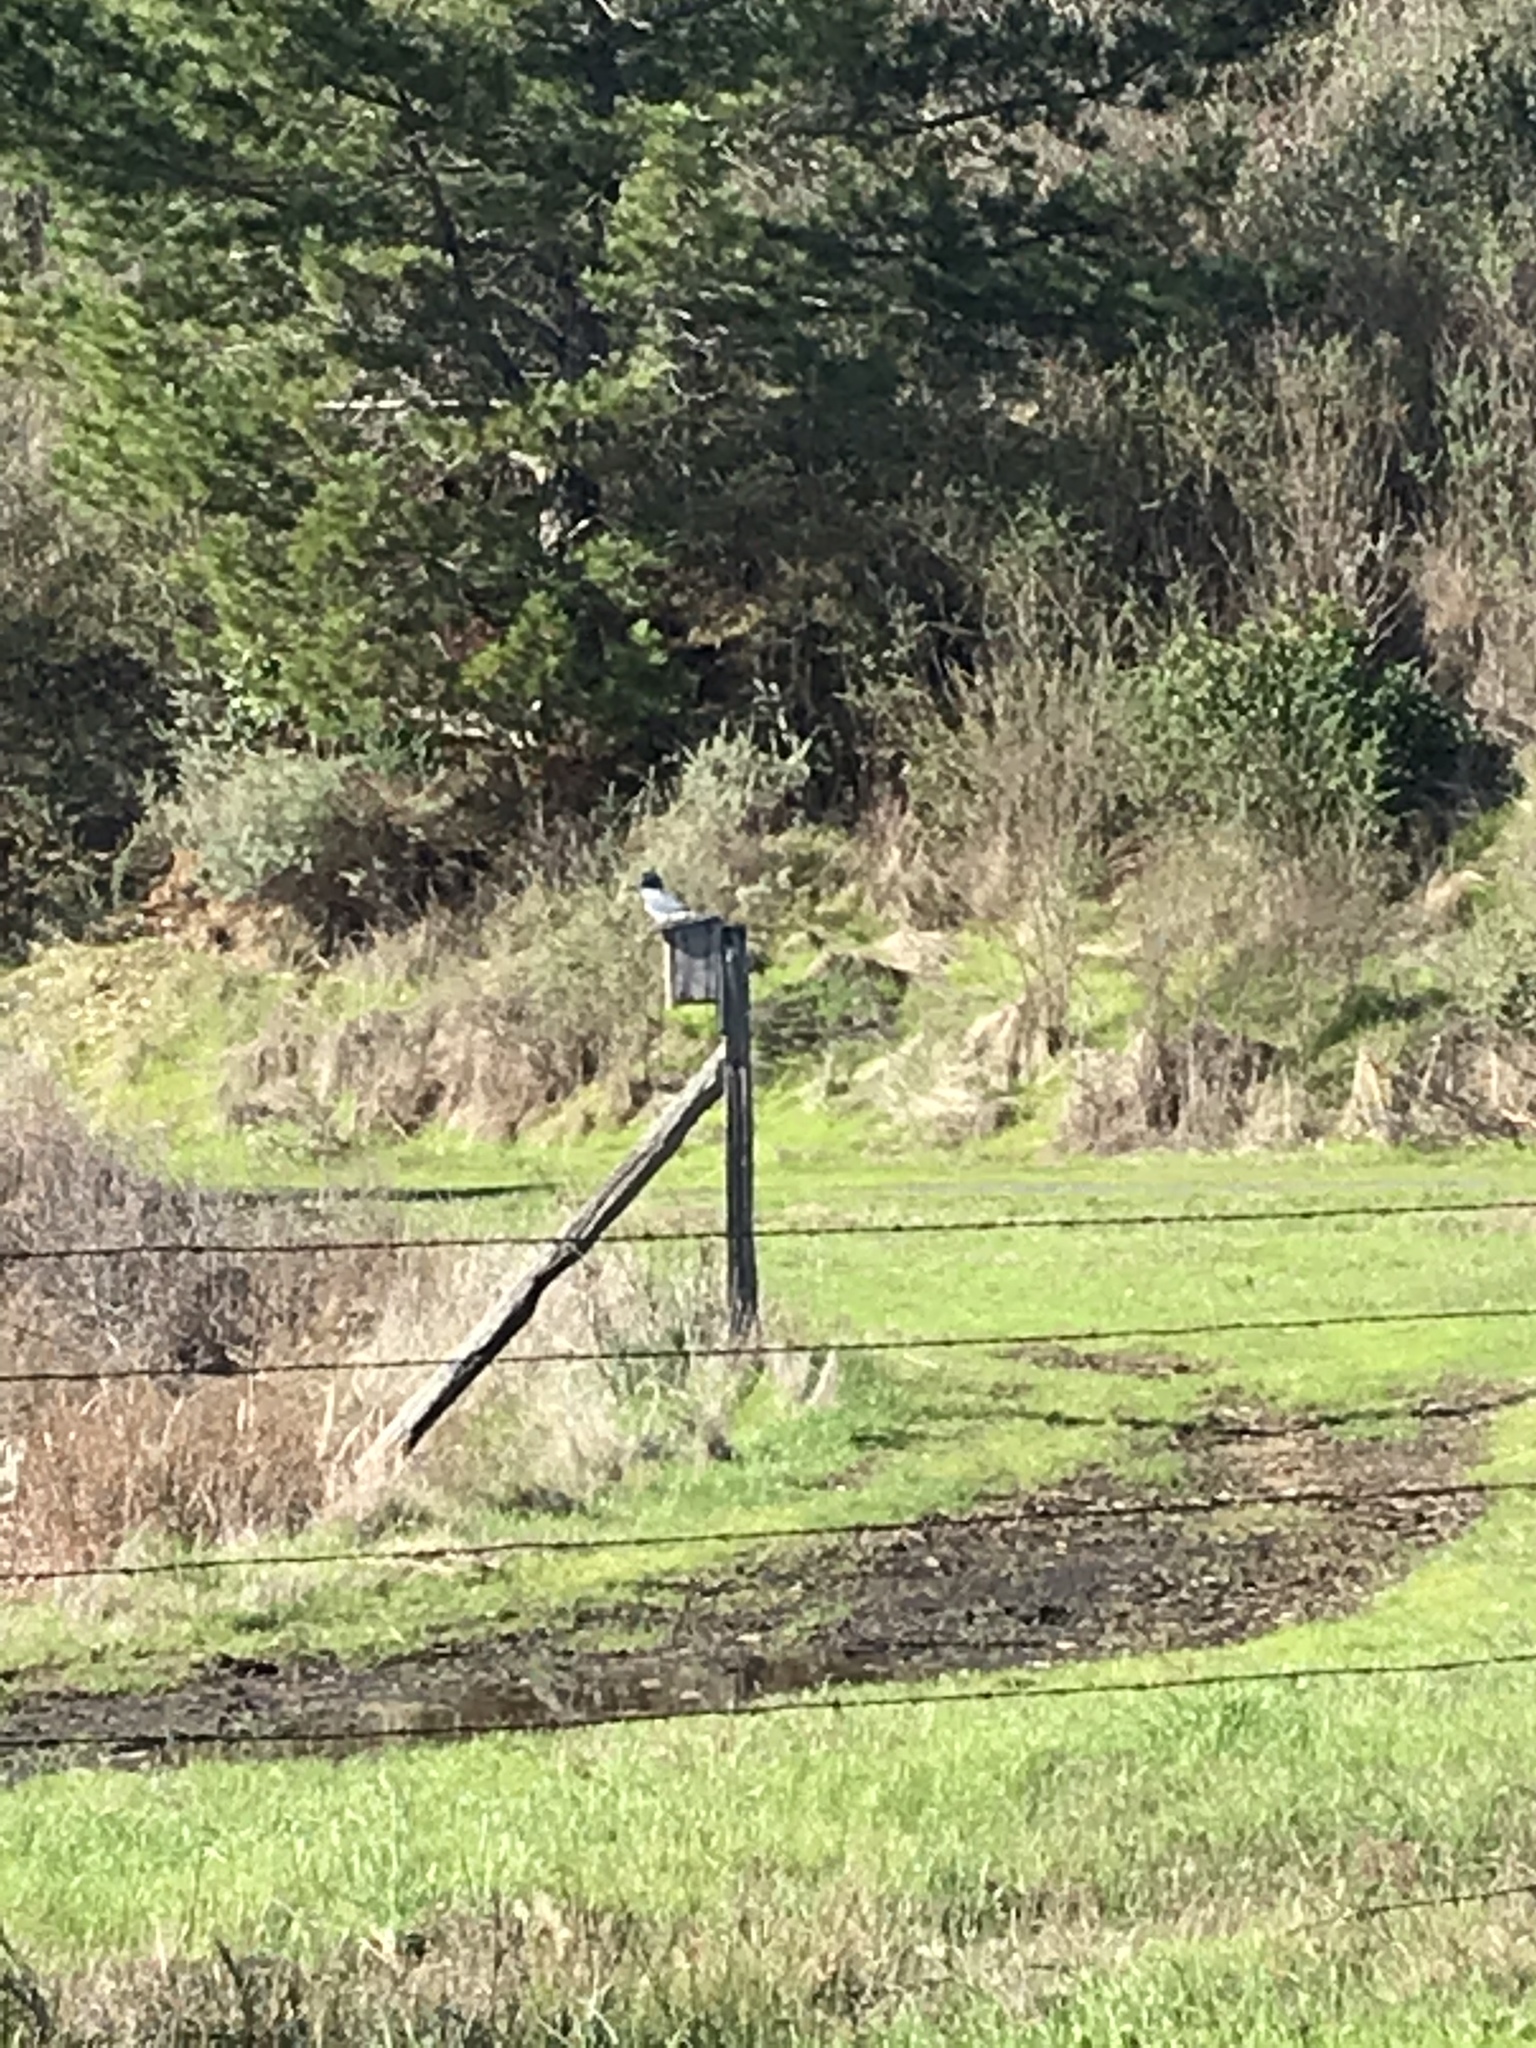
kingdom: Animalia
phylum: Chordata
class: Aves
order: Coraciiformes
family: Alcedinidae
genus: Megaceryle
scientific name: Megaceryle alcyon
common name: Belted kingfisher
